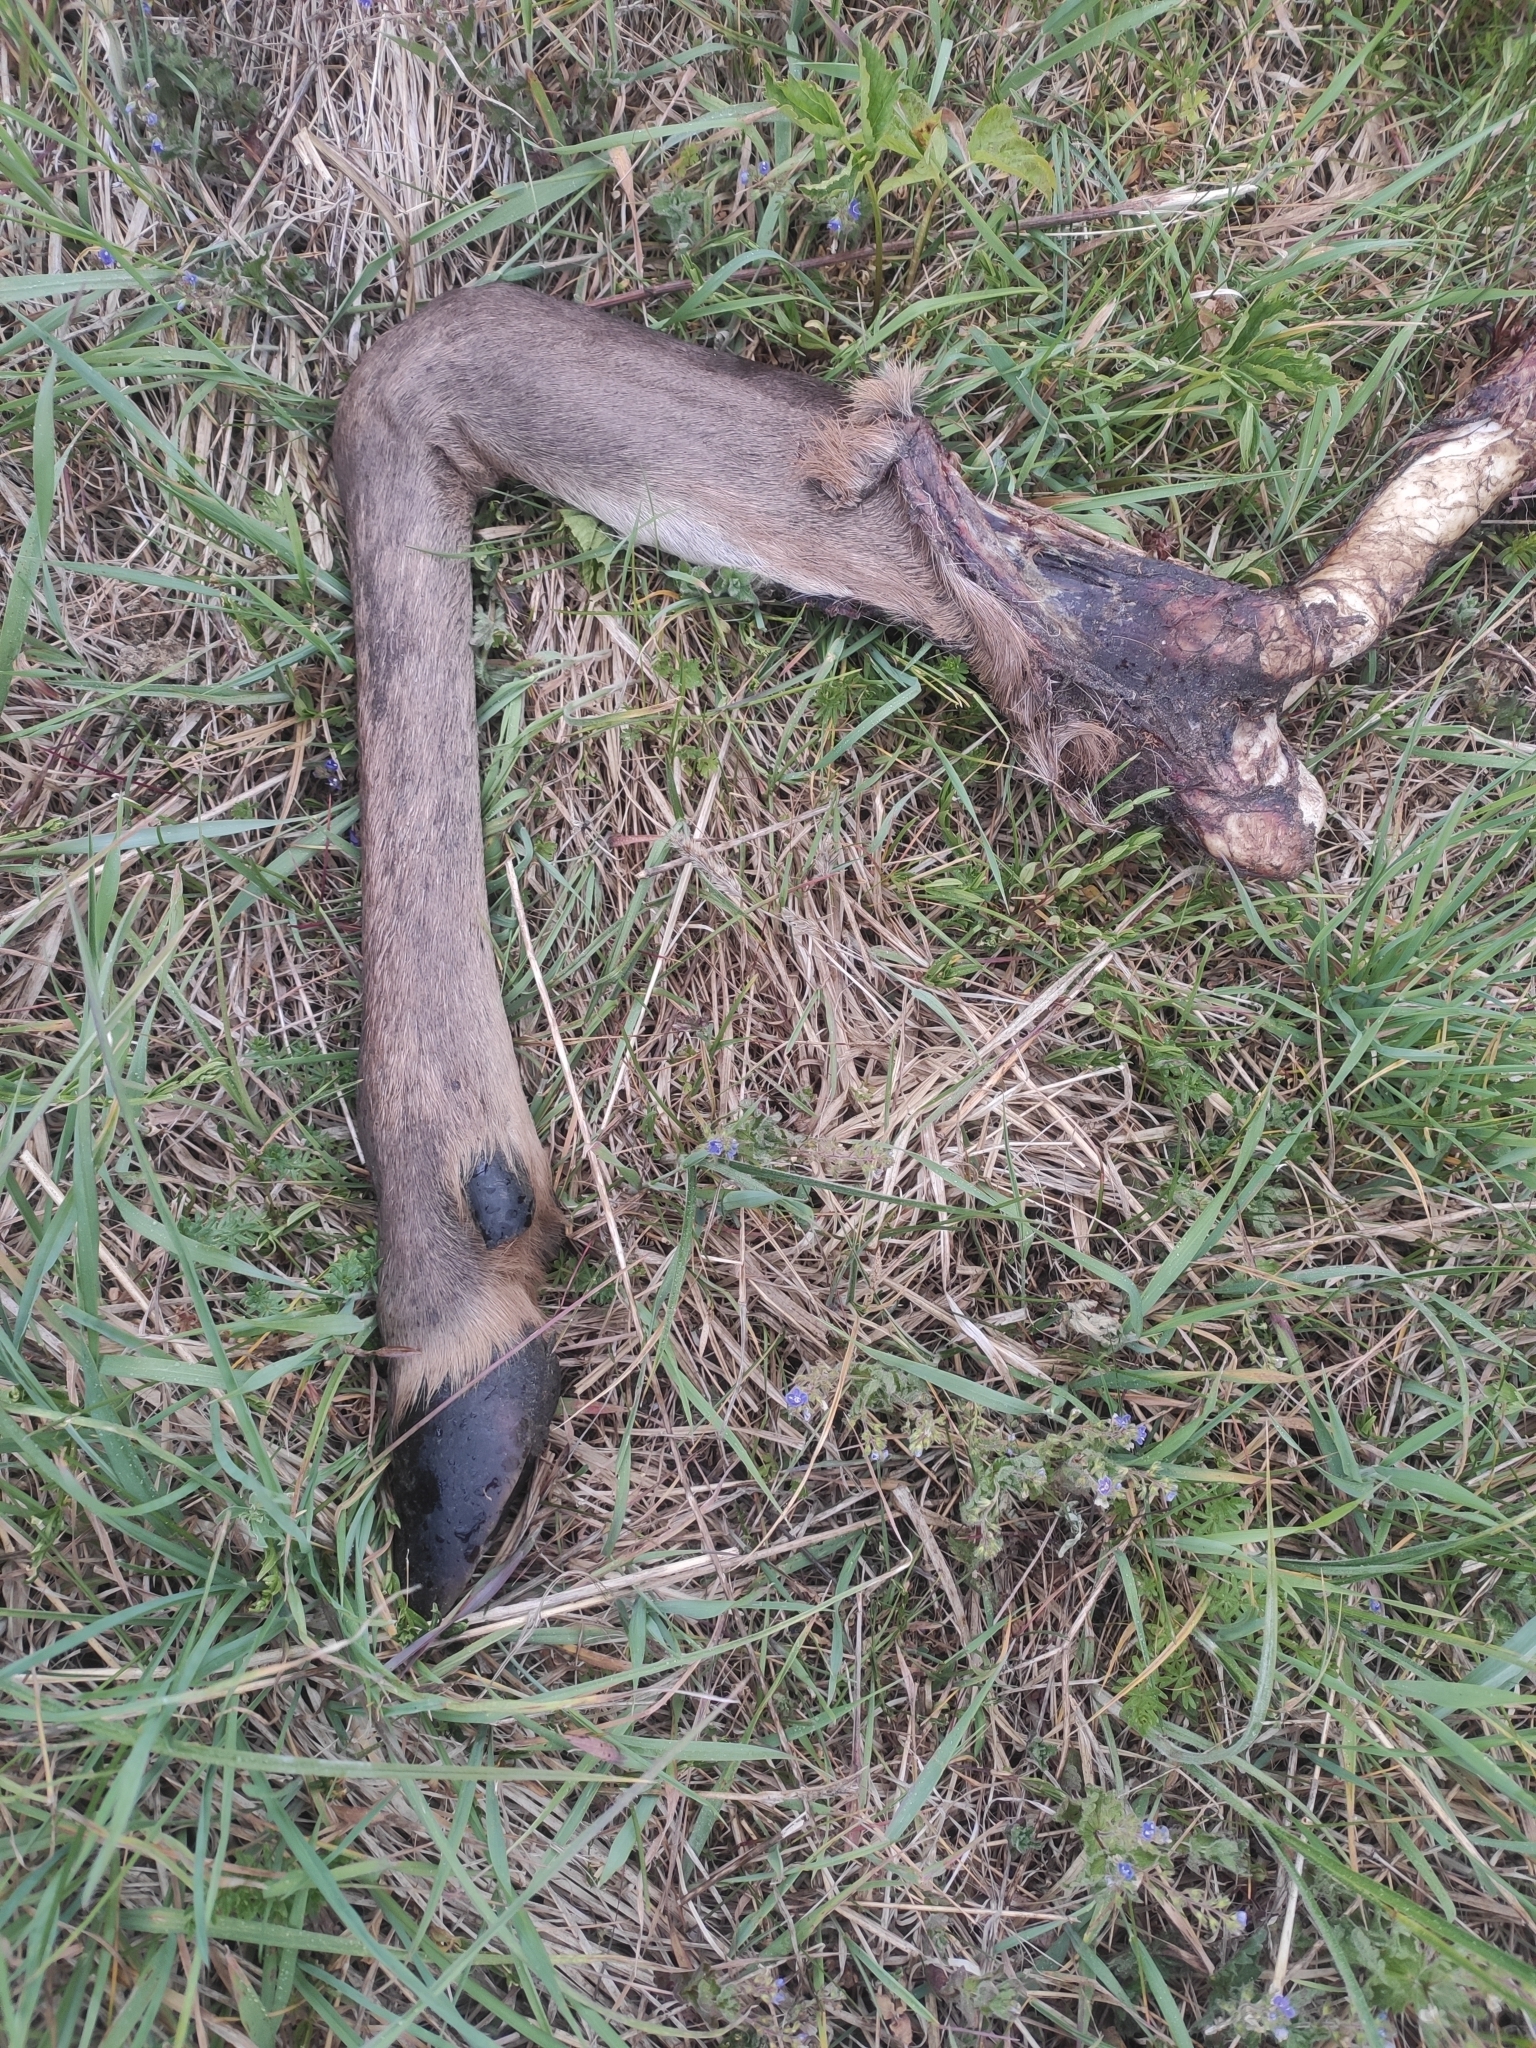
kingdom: Animalia
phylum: Chordata
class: Mammalia
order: Artiodactyla
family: Cervidae
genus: Cervus
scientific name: Cervus elaphus
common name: Red deer
